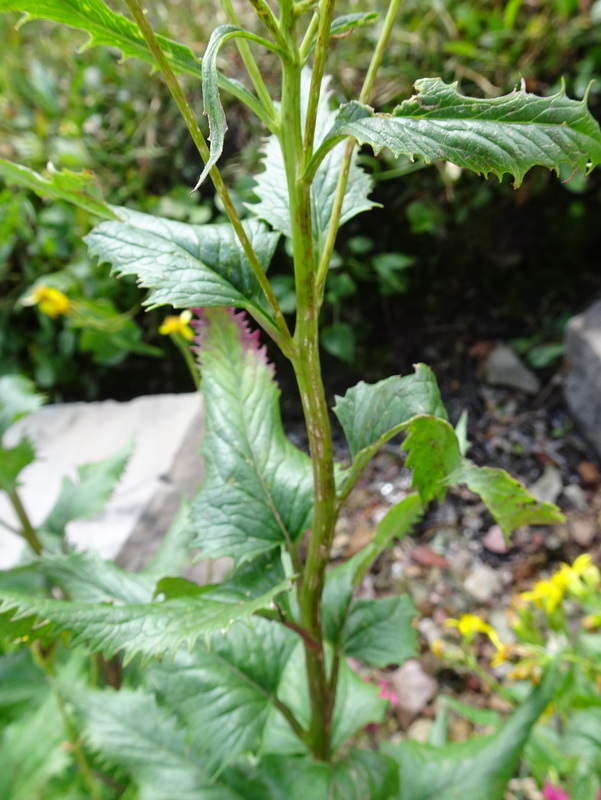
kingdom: Plantae
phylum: Tracheophyta
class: Magnoliopsida
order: Asterales
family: Asteraceae
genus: Senecio
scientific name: Senecio triangularis
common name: Arrowleaf butterweed
